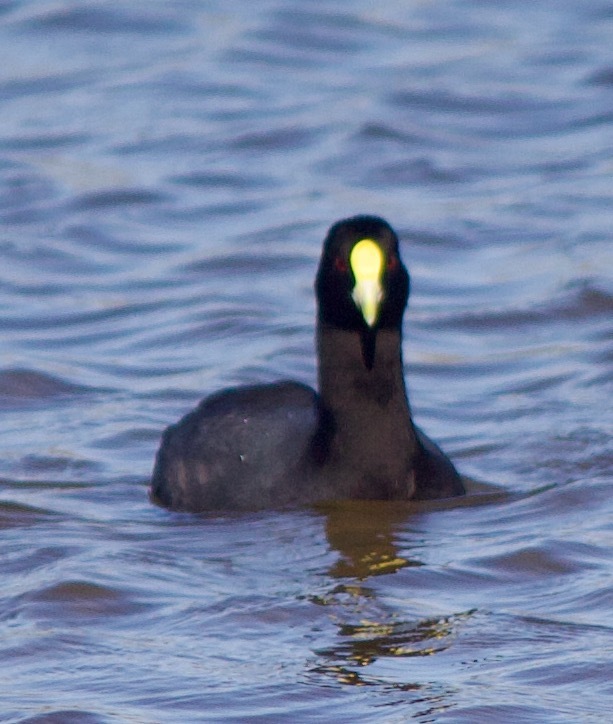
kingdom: Animalia
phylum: Chordata
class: Aves
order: Gruiformes
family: Rallidae
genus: Fulica
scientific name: Fulica leucoptera
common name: White-winged coot
